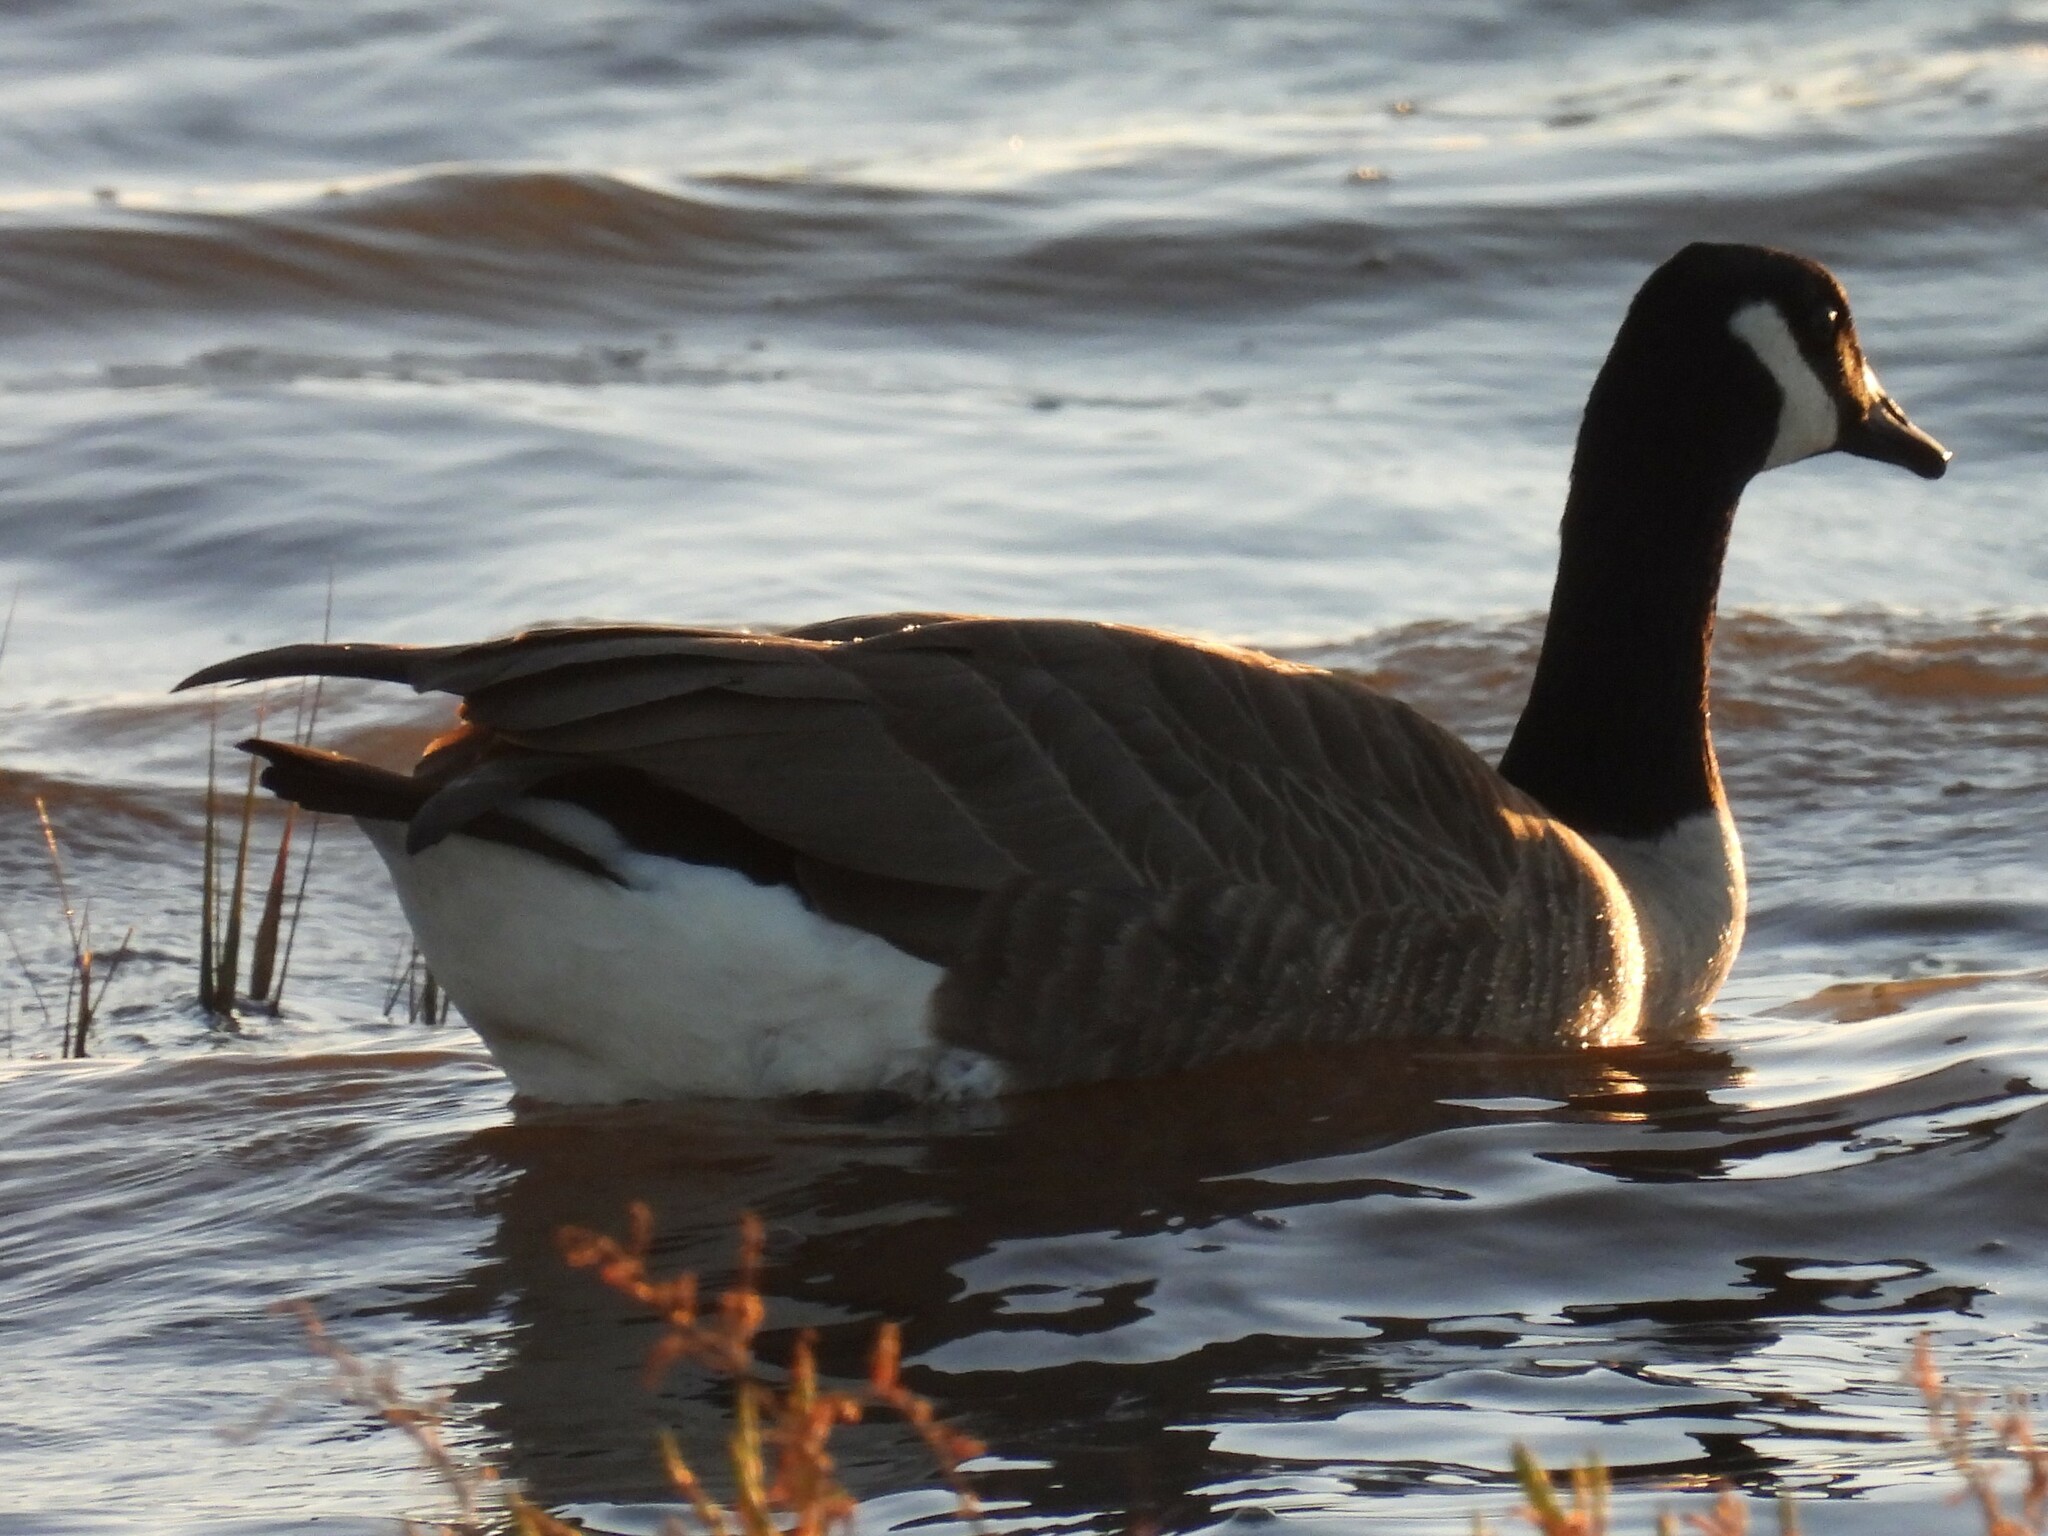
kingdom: Animalia
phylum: Chordata
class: Aves
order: Anseriformes
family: Anatidae
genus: Branta
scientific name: Branta canadensis
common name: Canada goose
